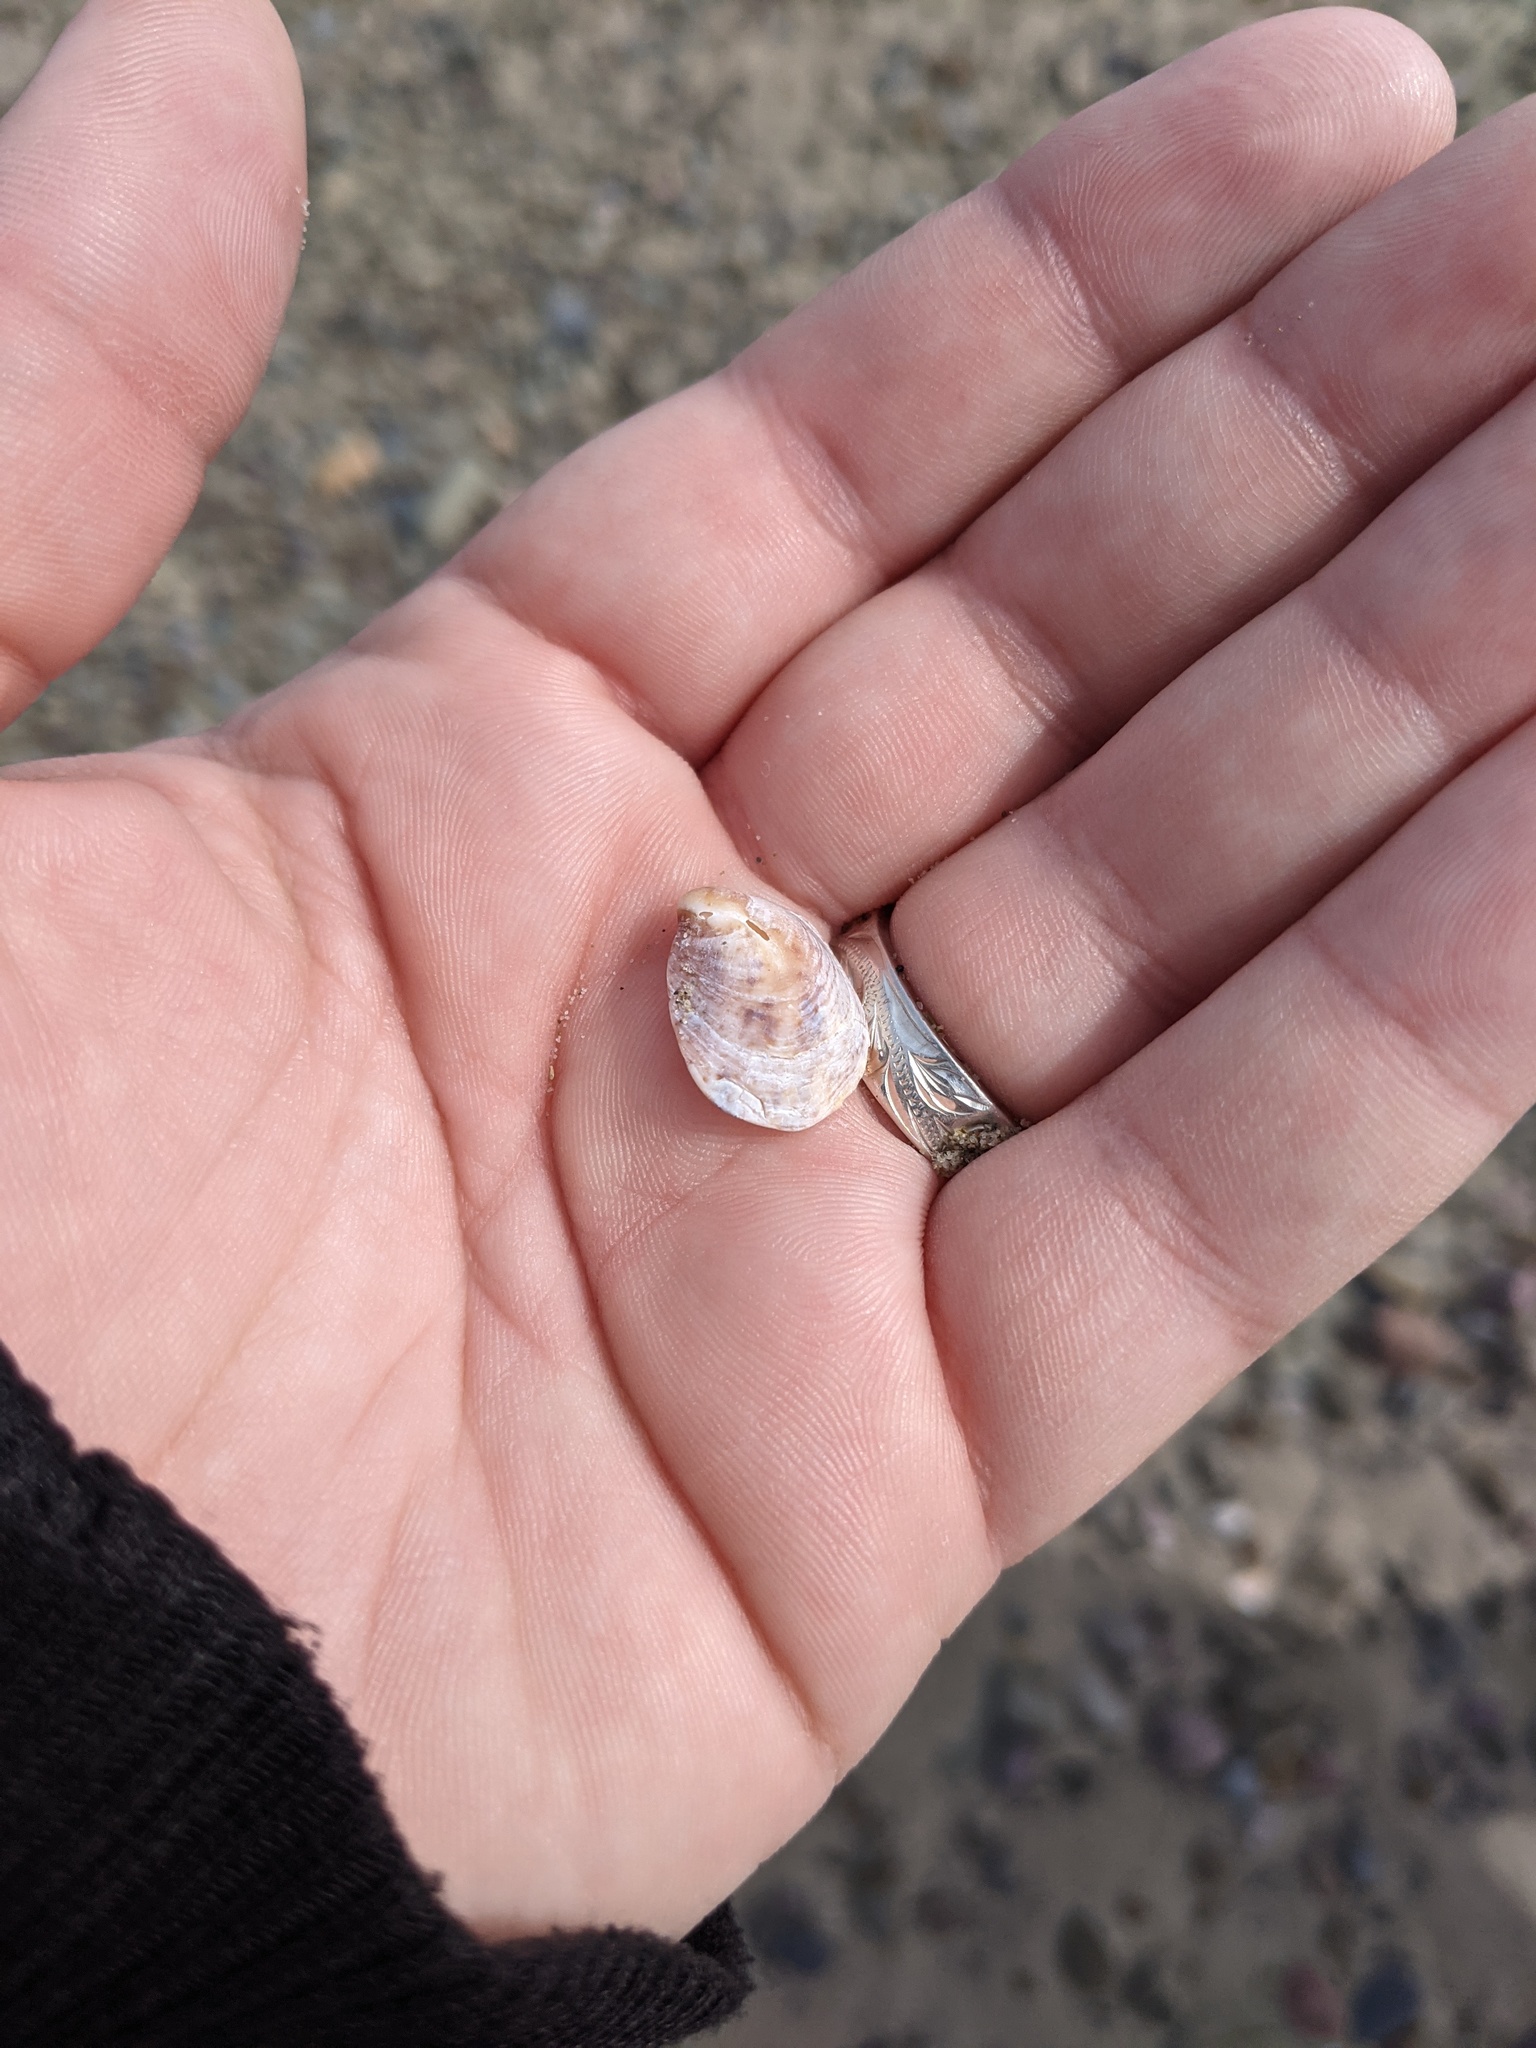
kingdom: Animalia
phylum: Mollusca
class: Gastropoda
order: Littorinimorpha
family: Calyptraeidae
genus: Crepidula
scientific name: Crepidula fornicata
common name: Slipper limpet
